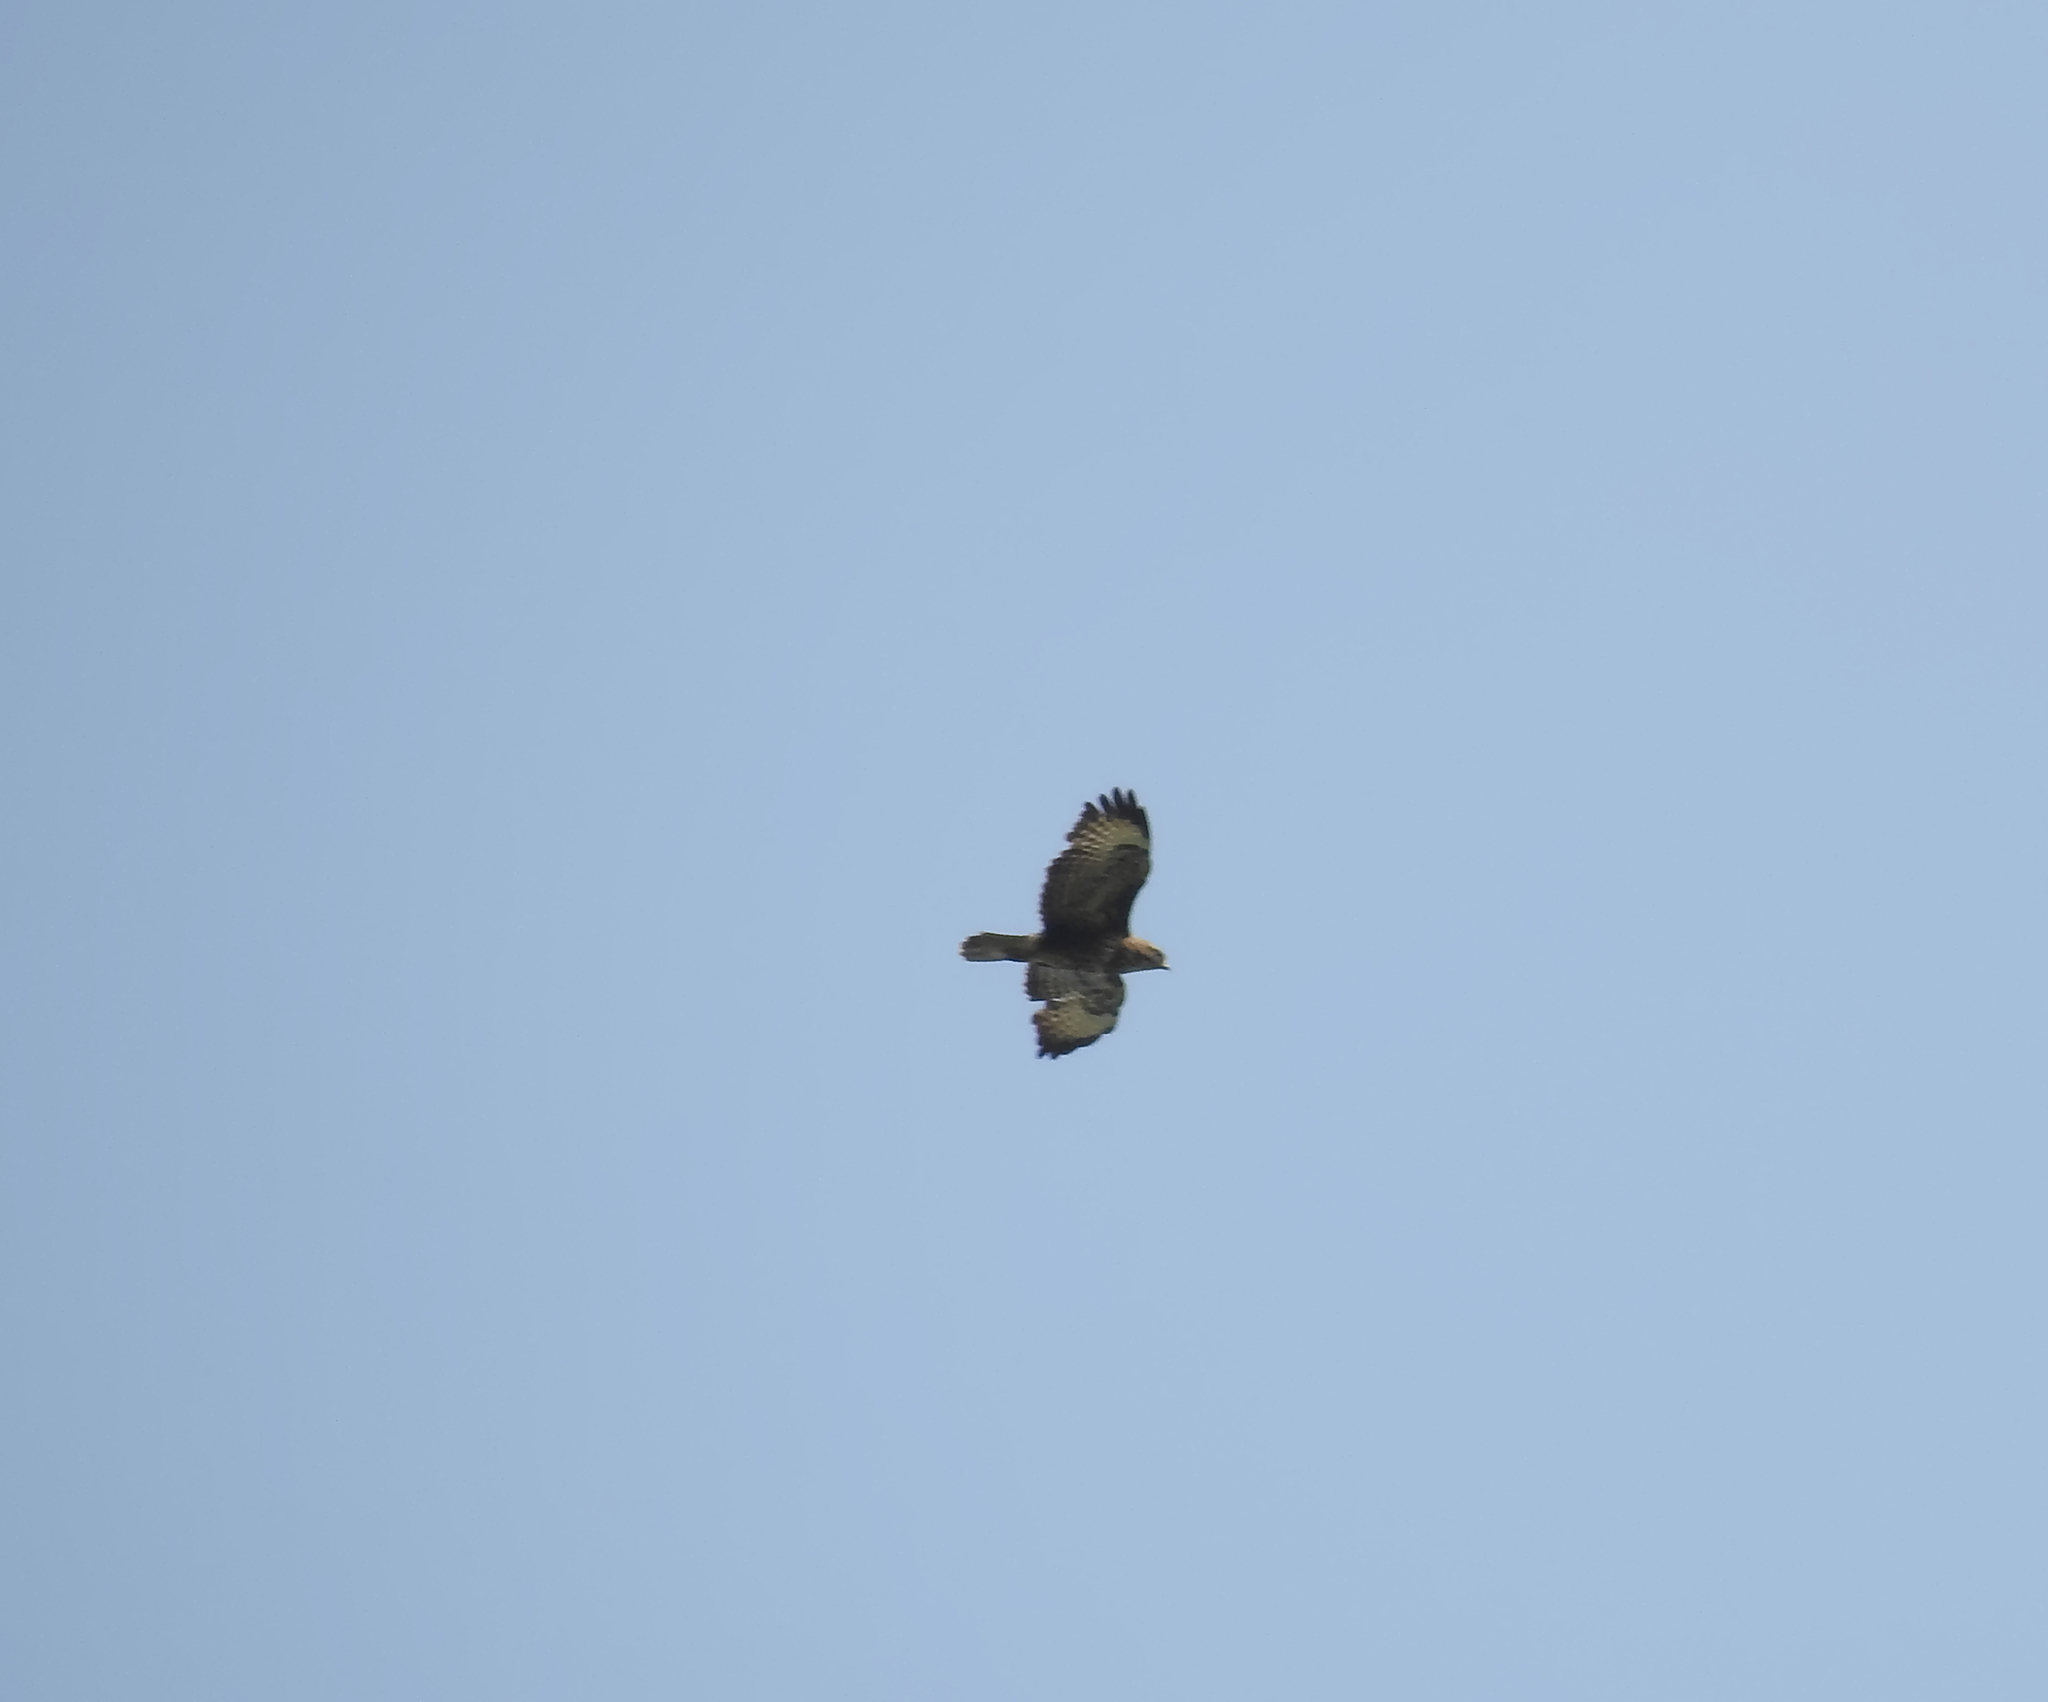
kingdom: Animalia
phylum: Chordata
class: Aves
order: Accipitriformes
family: Accipitridae
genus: Buteo
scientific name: Buteo buteo
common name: Common buzzard
